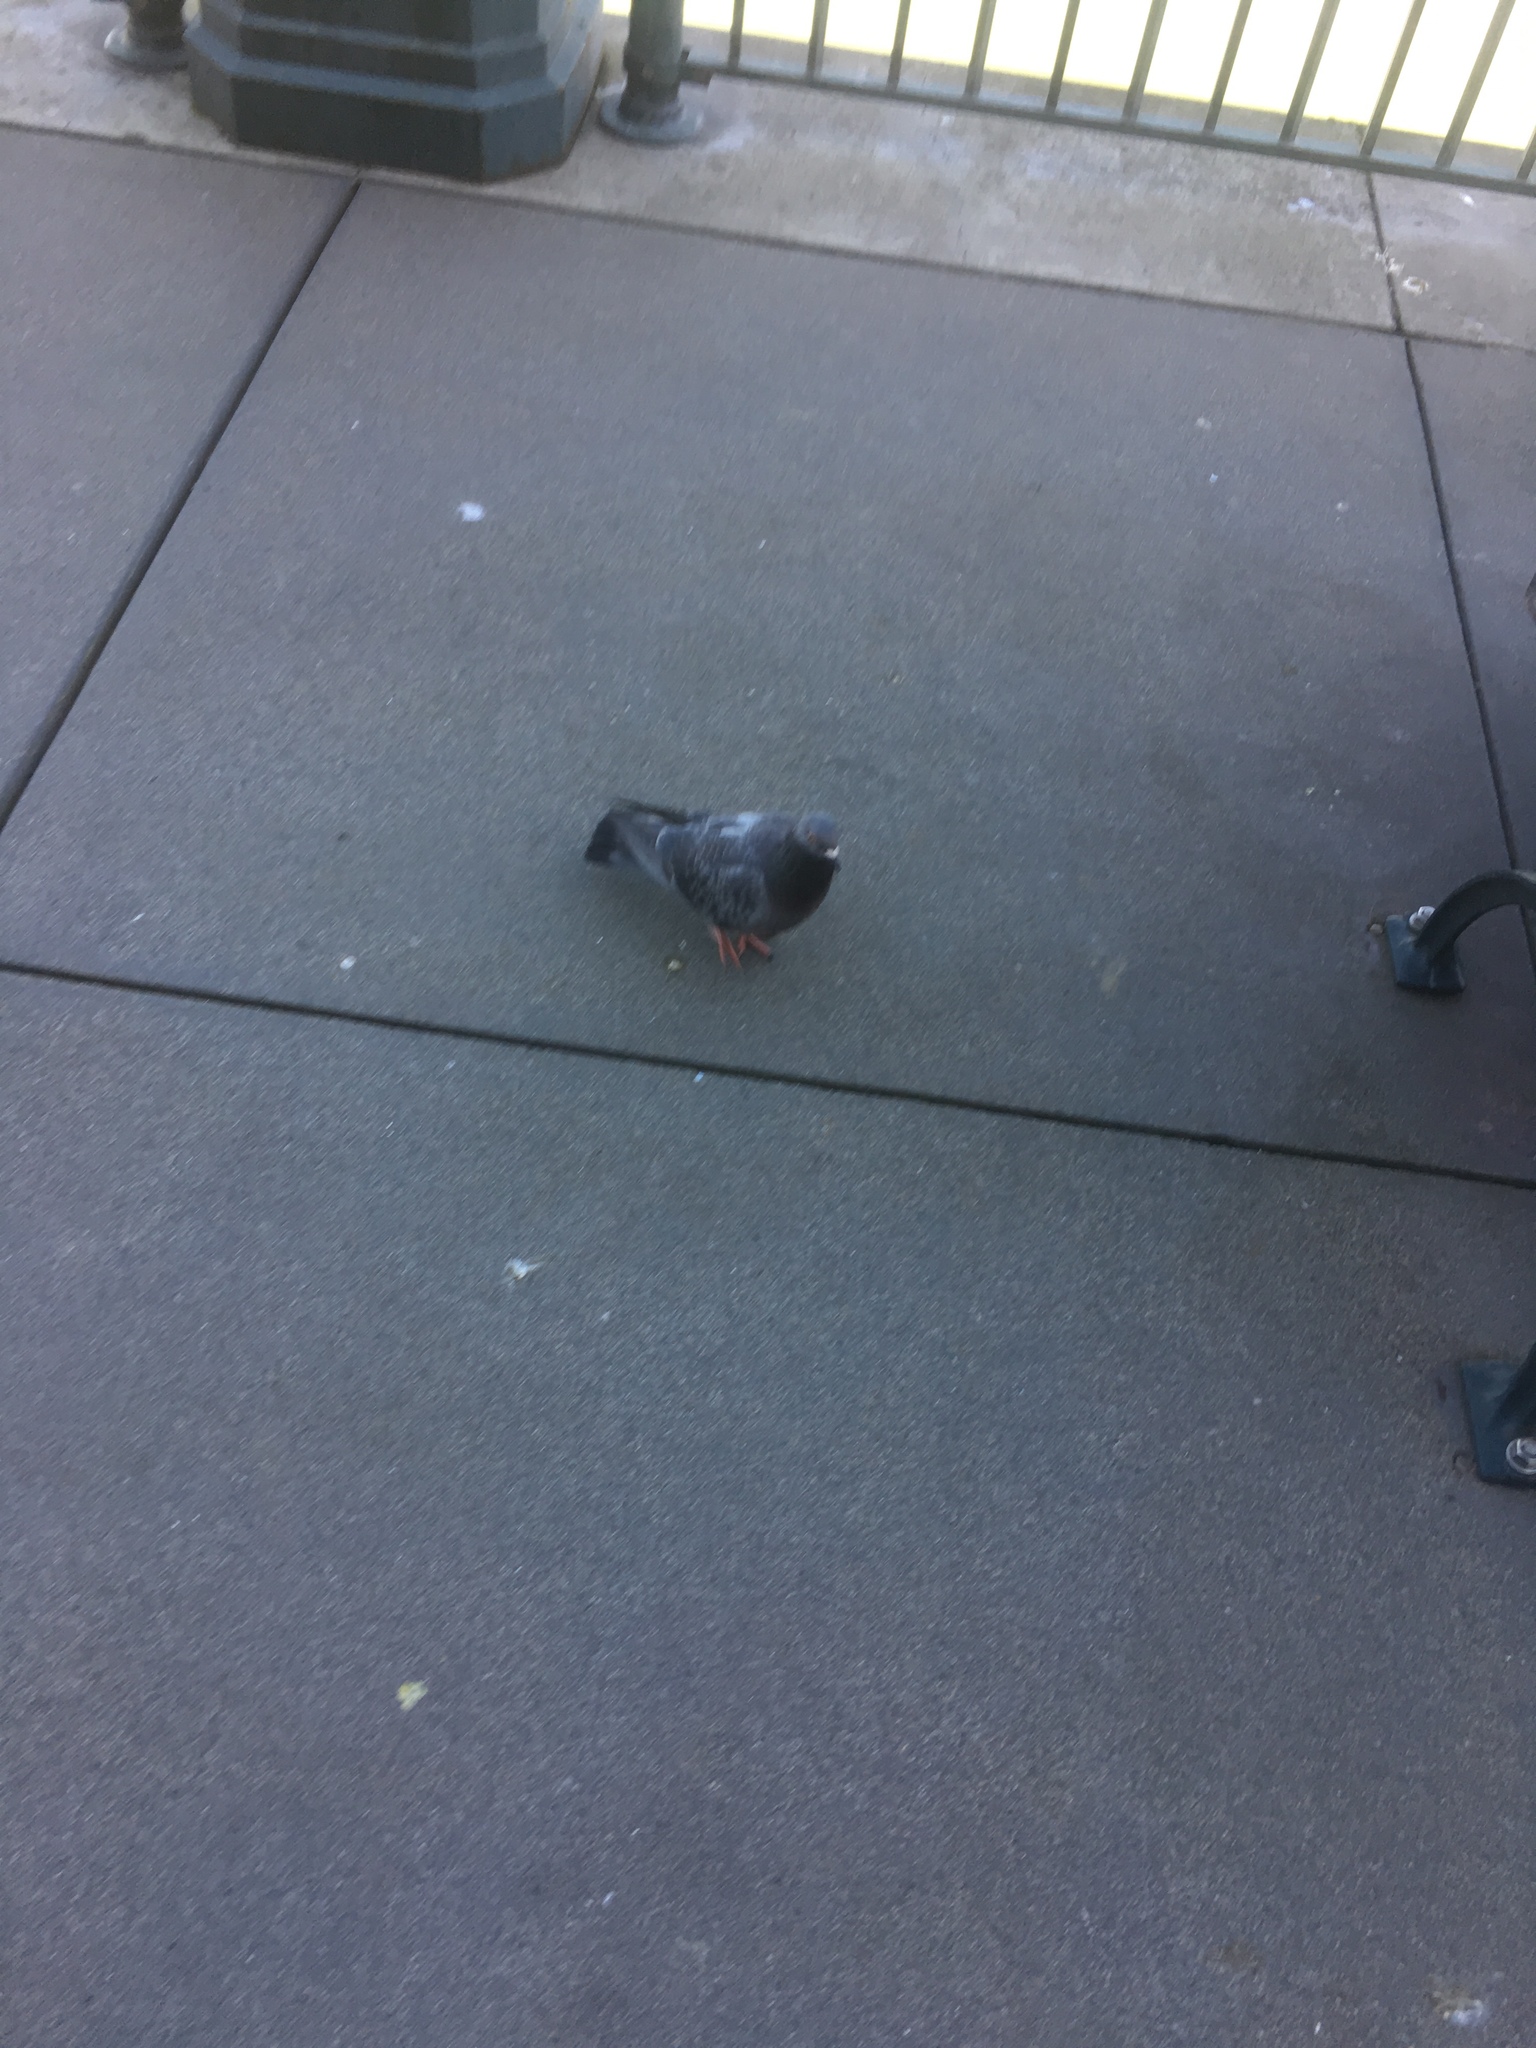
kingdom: Animalia
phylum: Chordata
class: Aves
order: Columbiformes
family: Columbidae
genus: Columba
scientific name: Columba livia
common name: Rock pigeon
